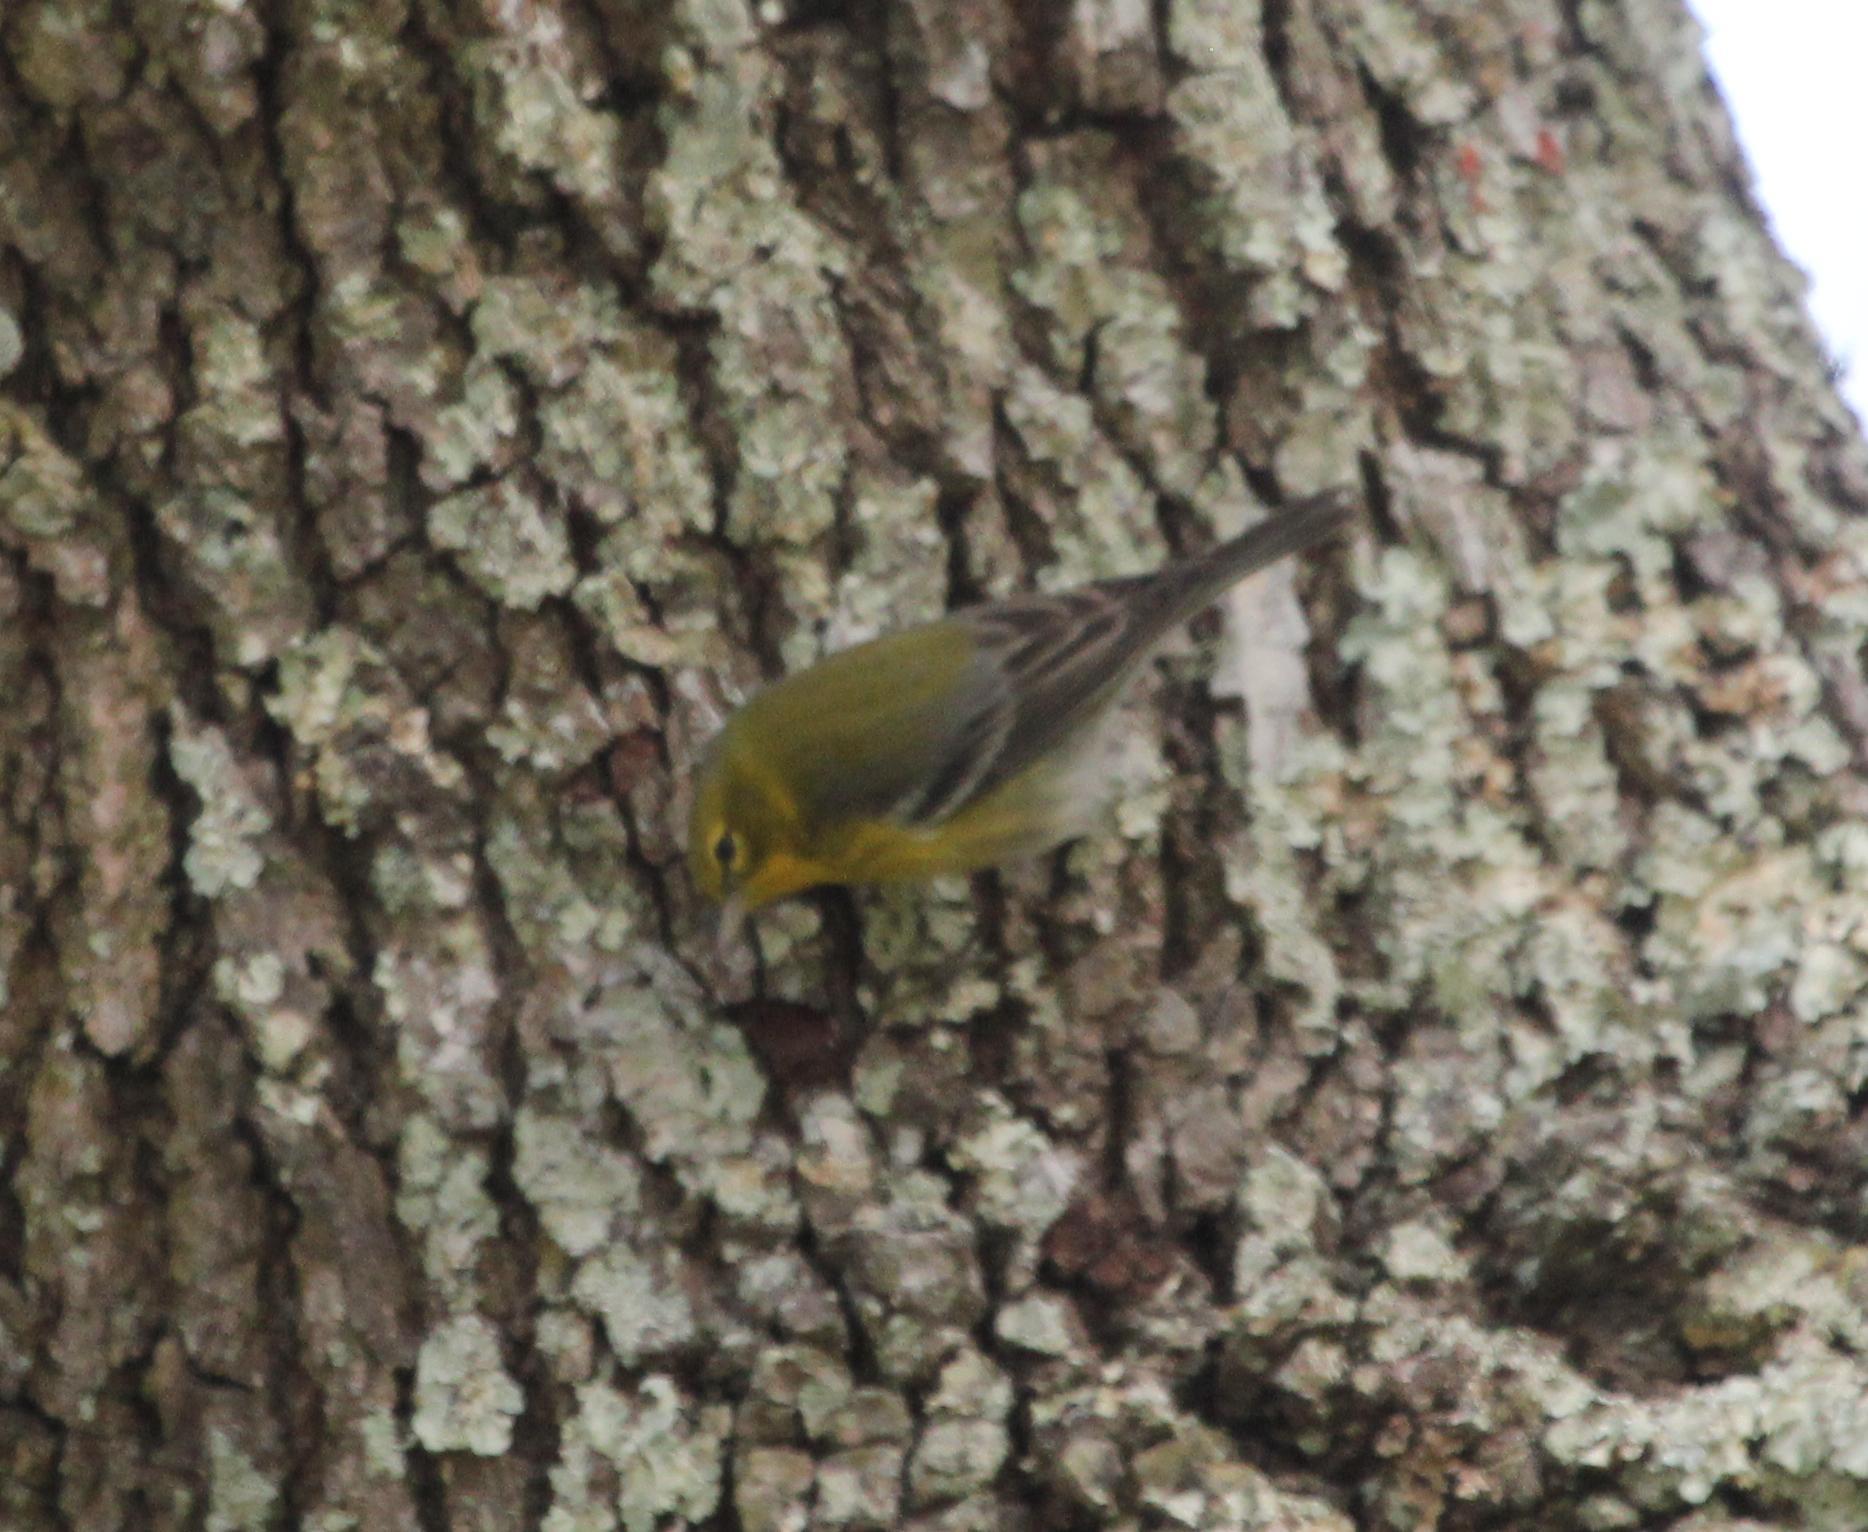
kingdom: Animalia
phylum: Chordata
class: Aves
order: Passeriformes
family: Parulidae
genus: Setophaga
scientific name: Setophaga pinus
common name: Pine warbler
